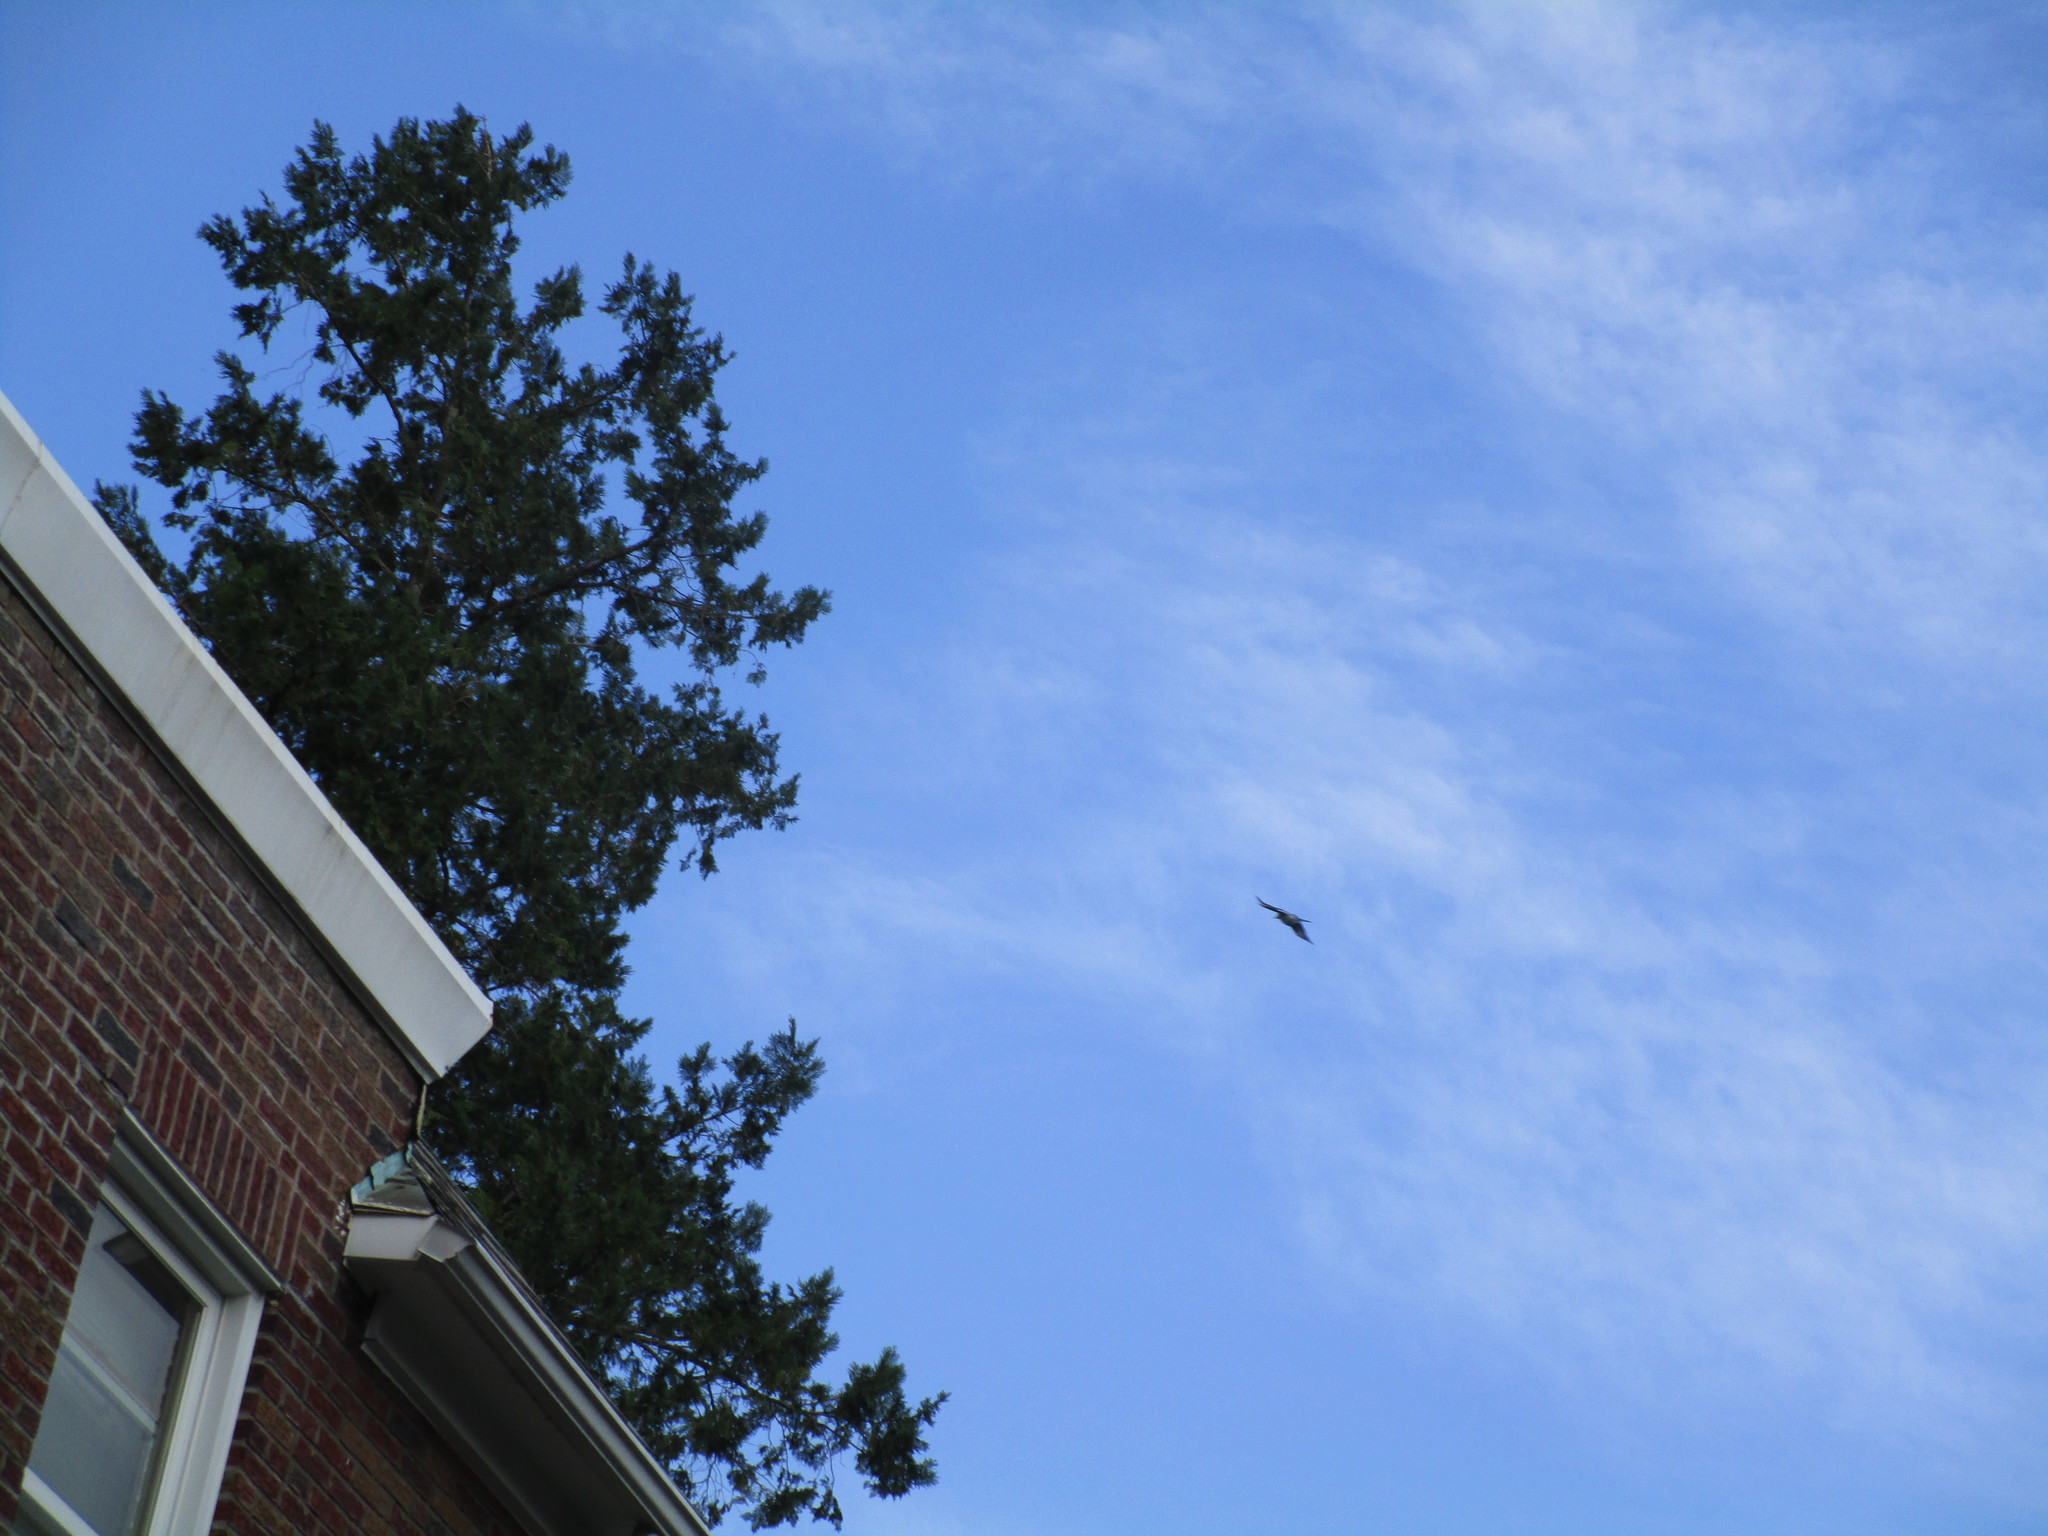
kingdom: Animalia
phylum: Chordata
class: Aves
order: Passeriformes
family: Mimidae
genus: Dumetella
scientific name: Dumetella carolinensis
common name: Gray catbird
